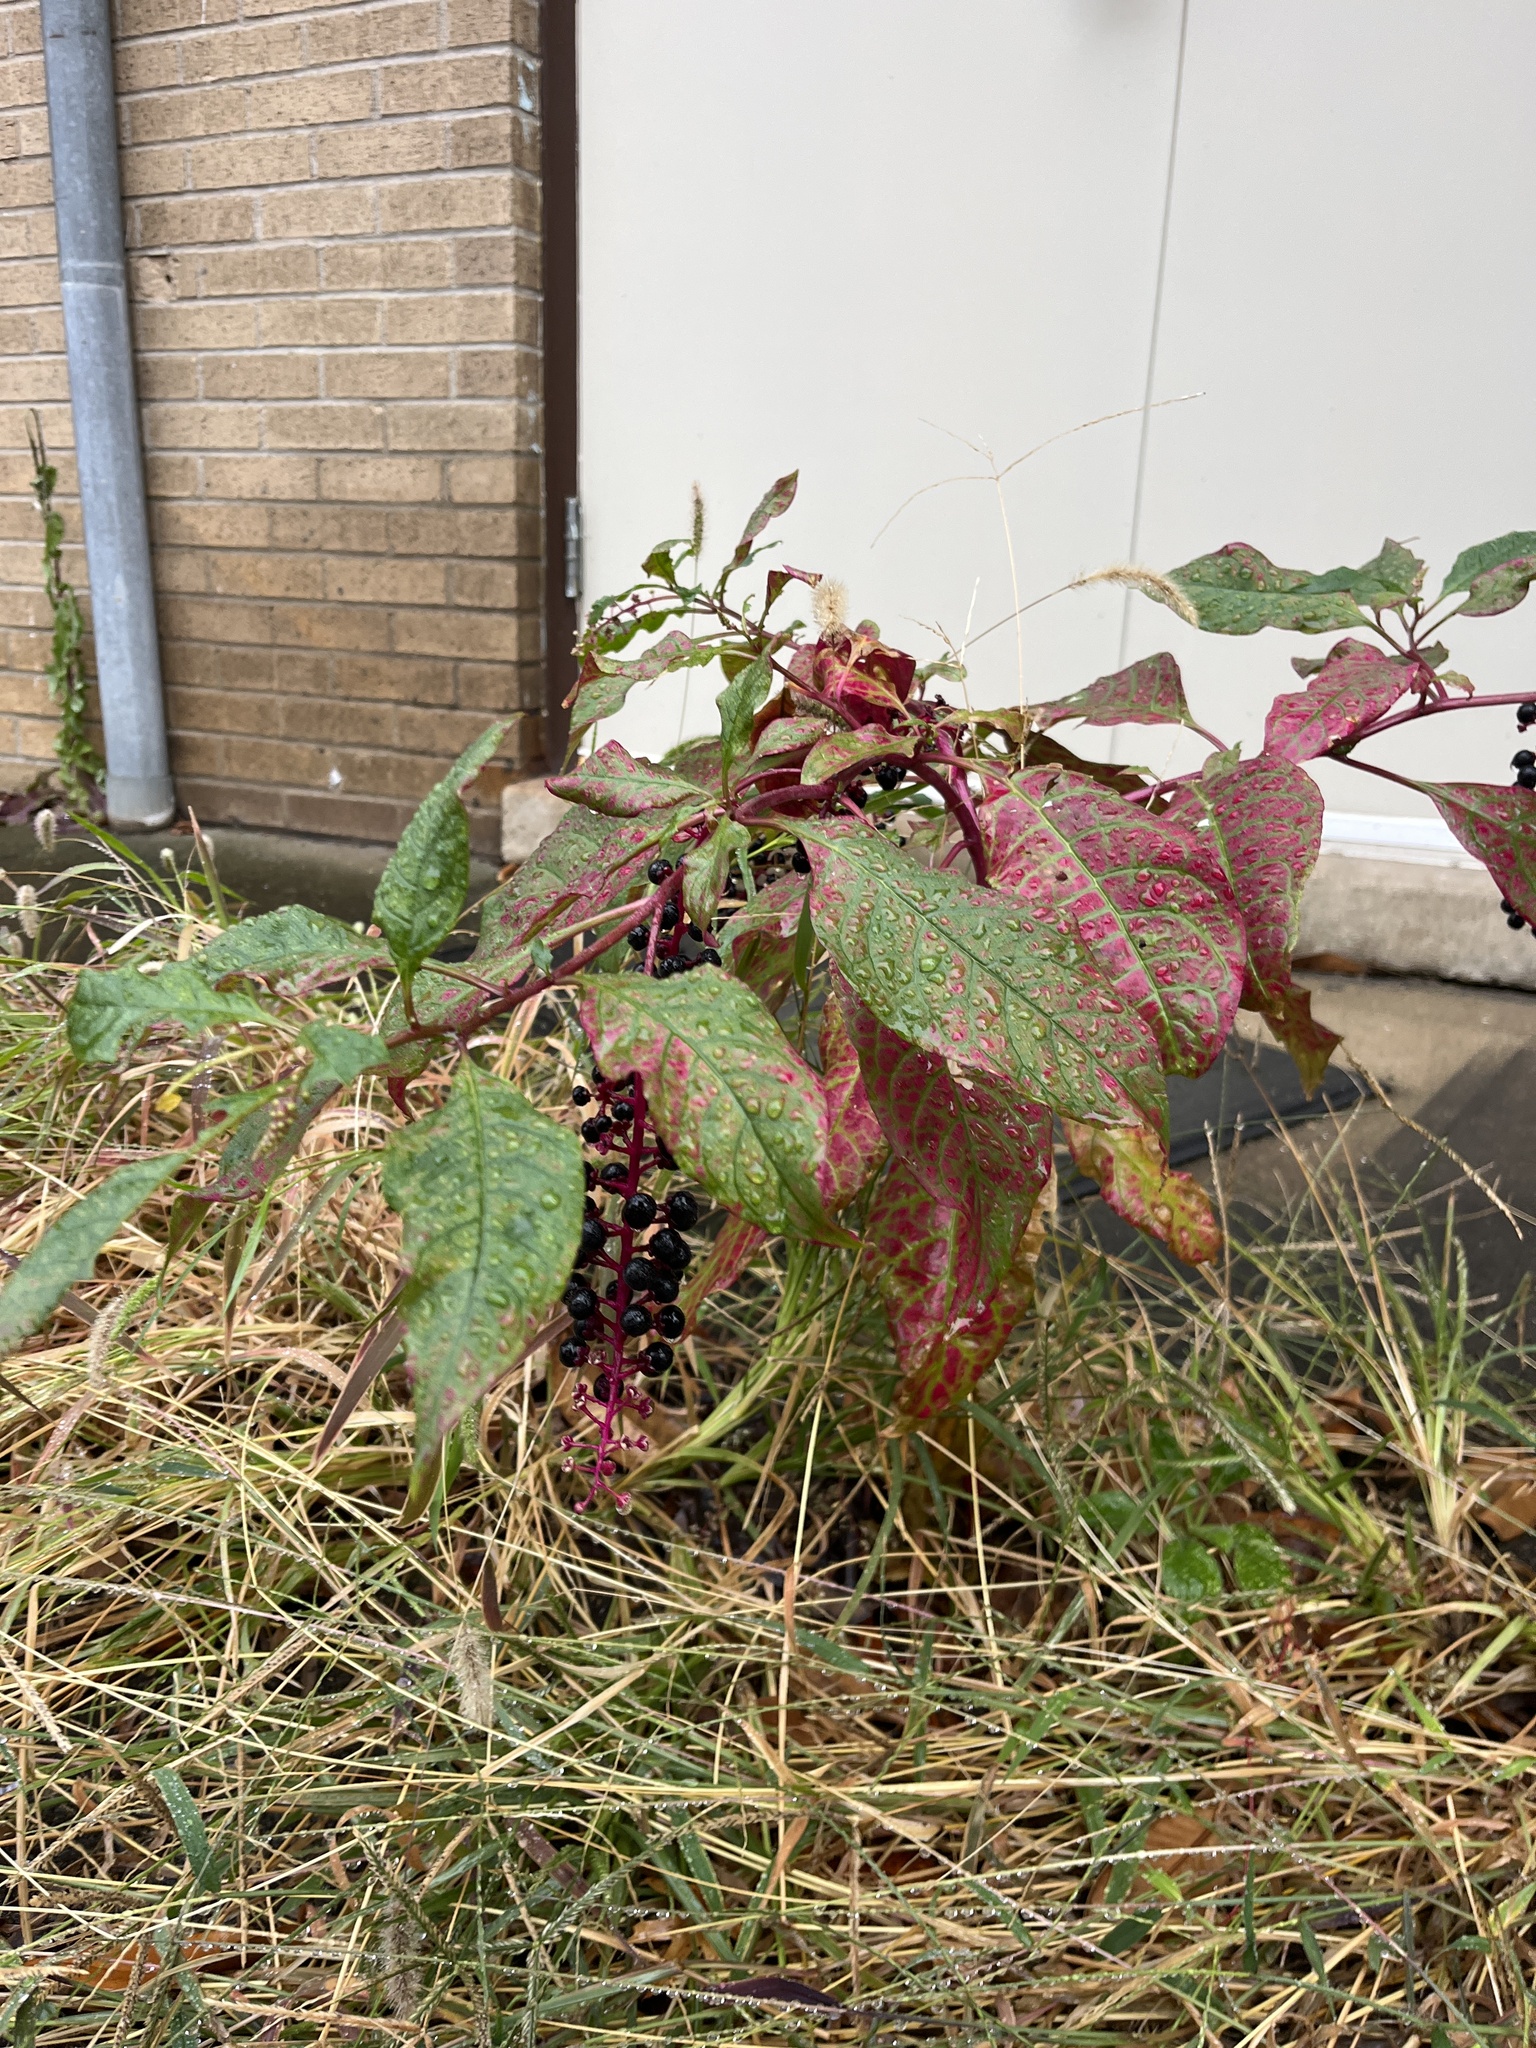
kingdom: Plantae
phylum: Tracheophyta
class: Magnoliopsida
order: Caryophyllales
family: Phytolaccaceae
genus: Phytolacca
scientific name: Phytolacca americana
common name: American pokeweed
